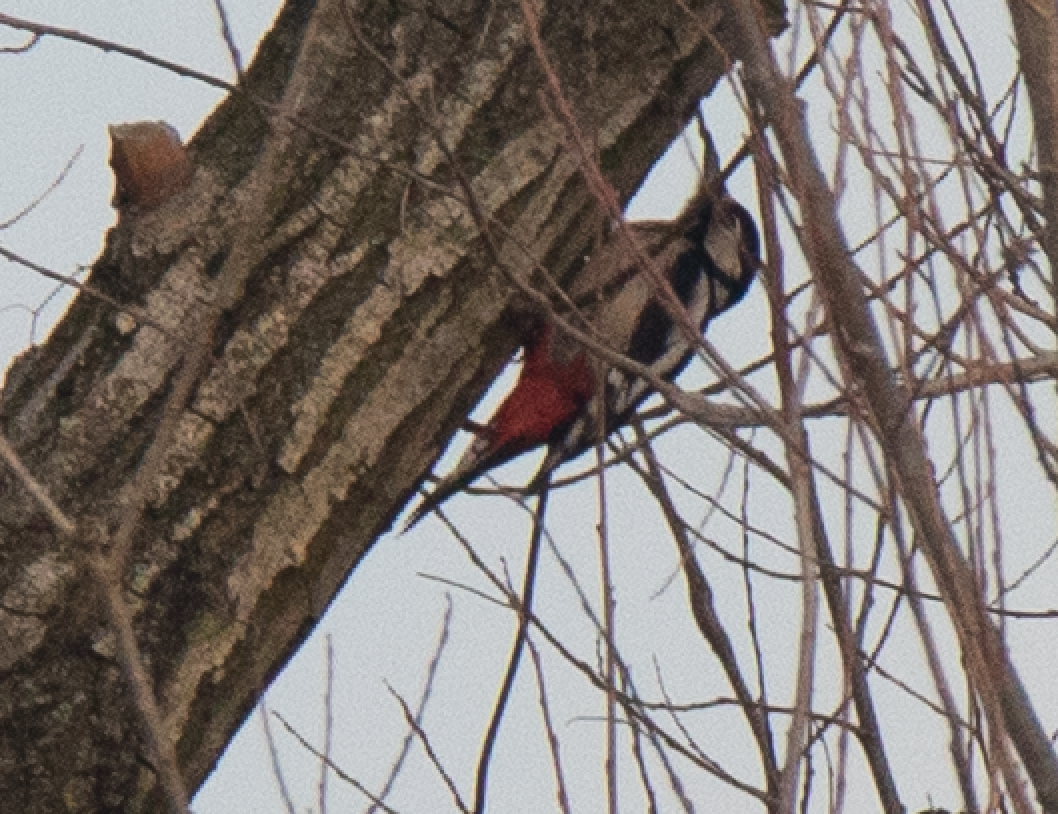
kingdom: Animalia
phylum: Chordata
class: Aves
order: Piciformes
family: Picidae
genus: Dendrocopos
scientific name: Dendrocopos major
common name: Great spotted woodpecker
